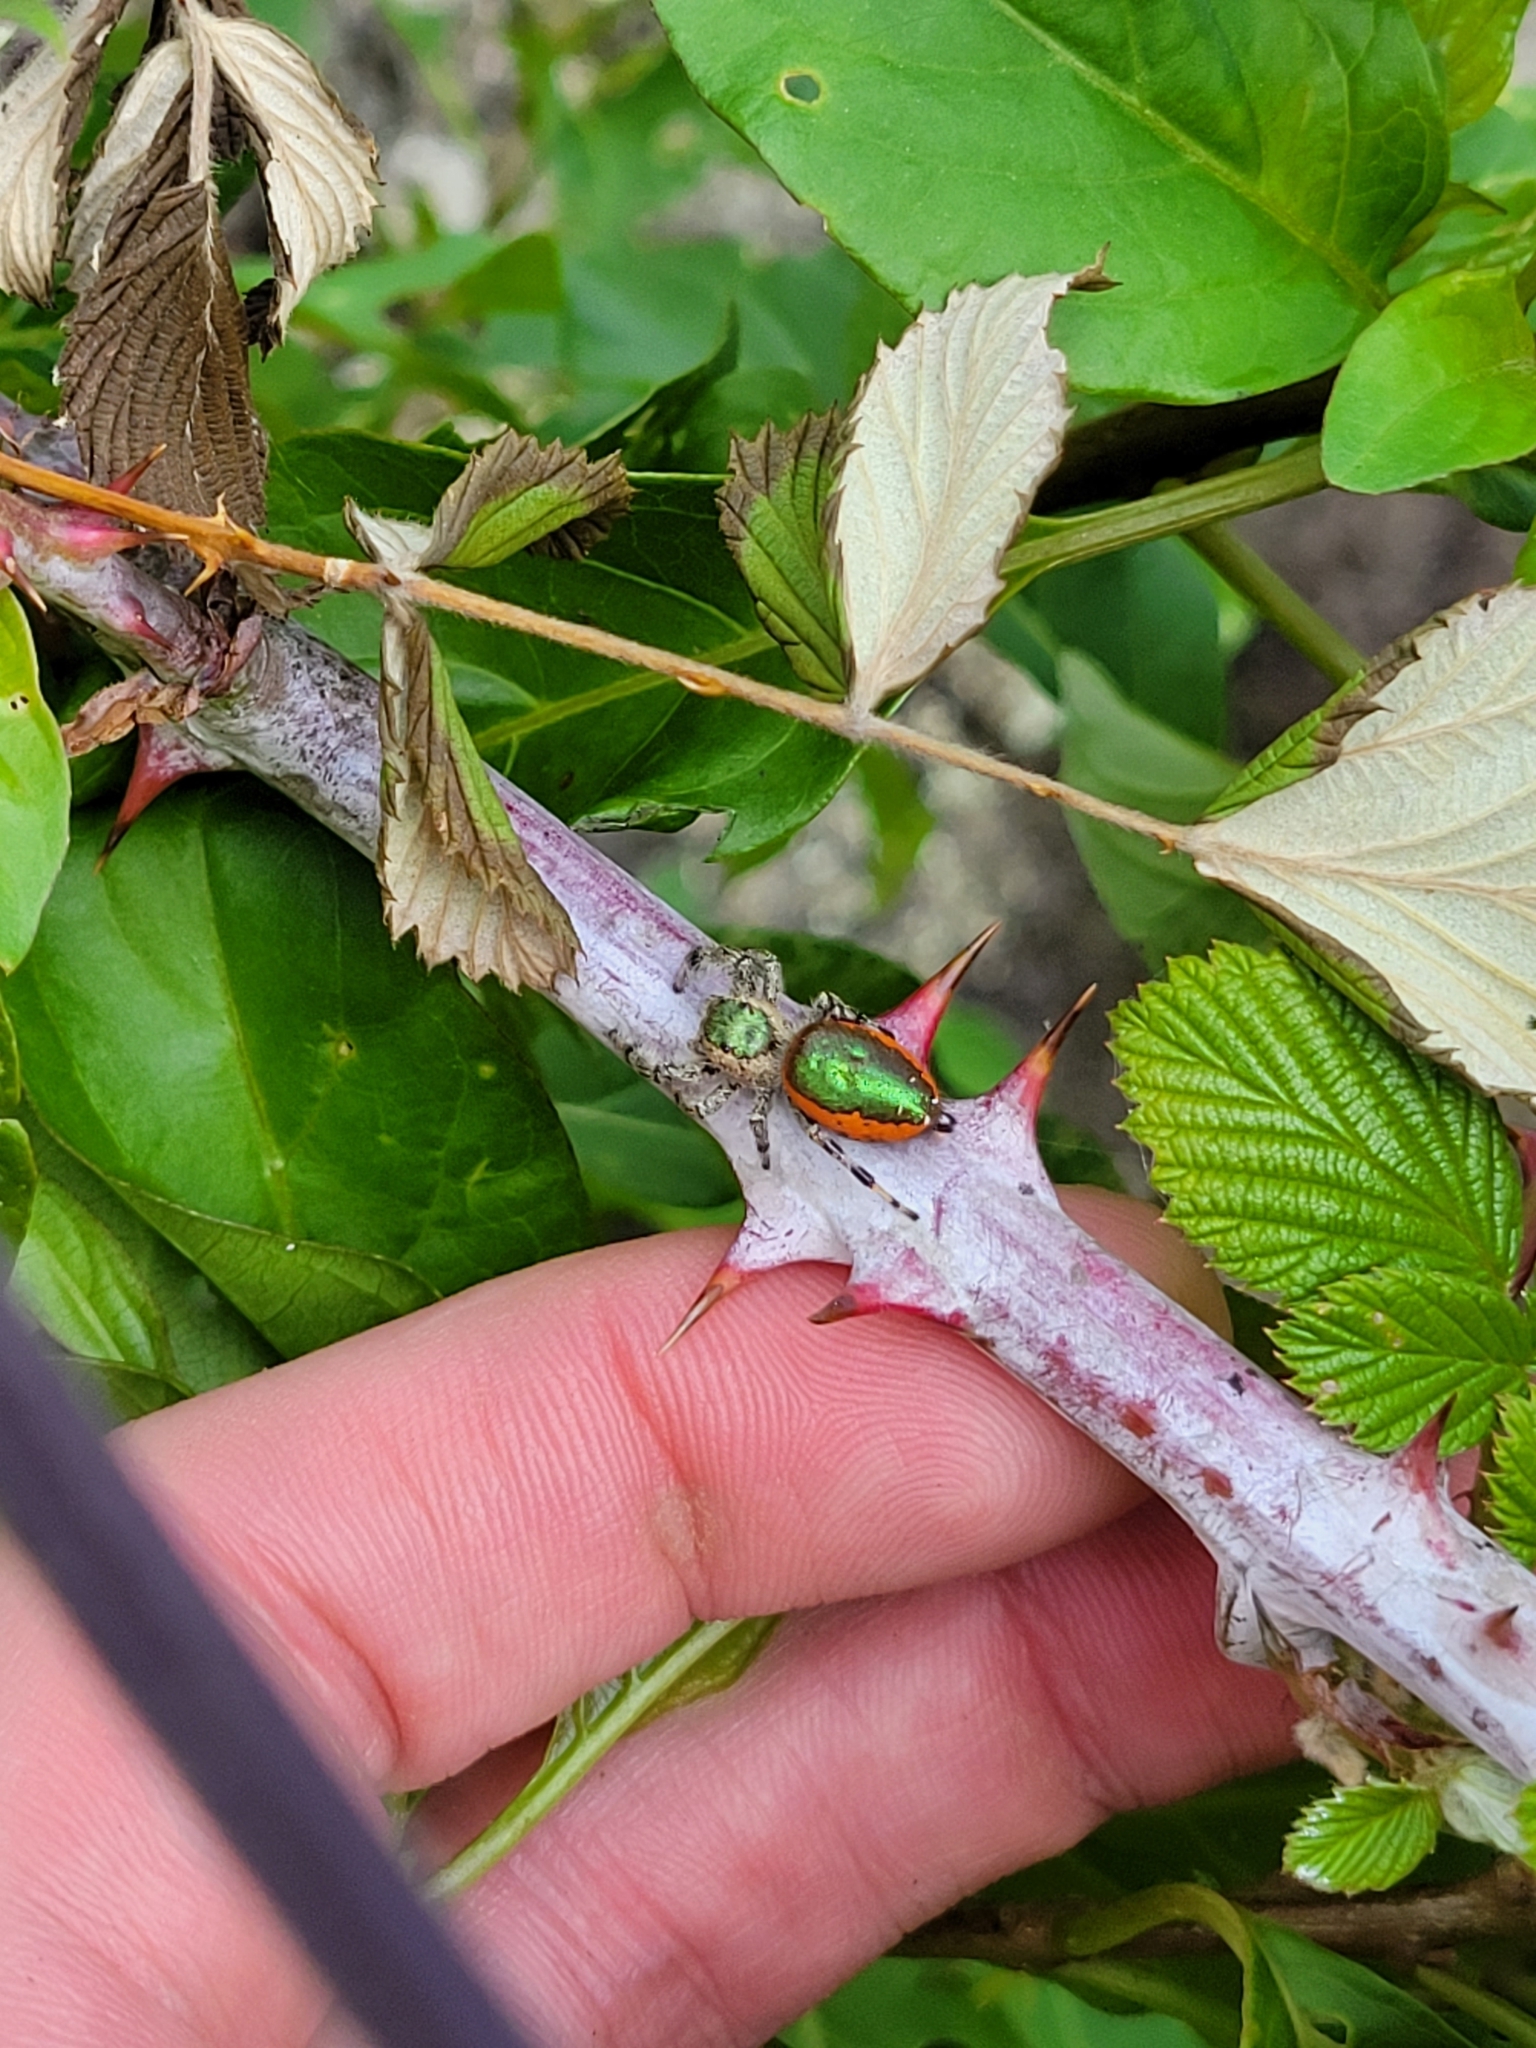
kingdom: Animalia
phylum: Arthropoda
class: Arachnida
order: Araneae
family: Salticidae
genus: Paraphidippus
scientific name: Paraphidippus aurantius
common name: Jumping spiders
